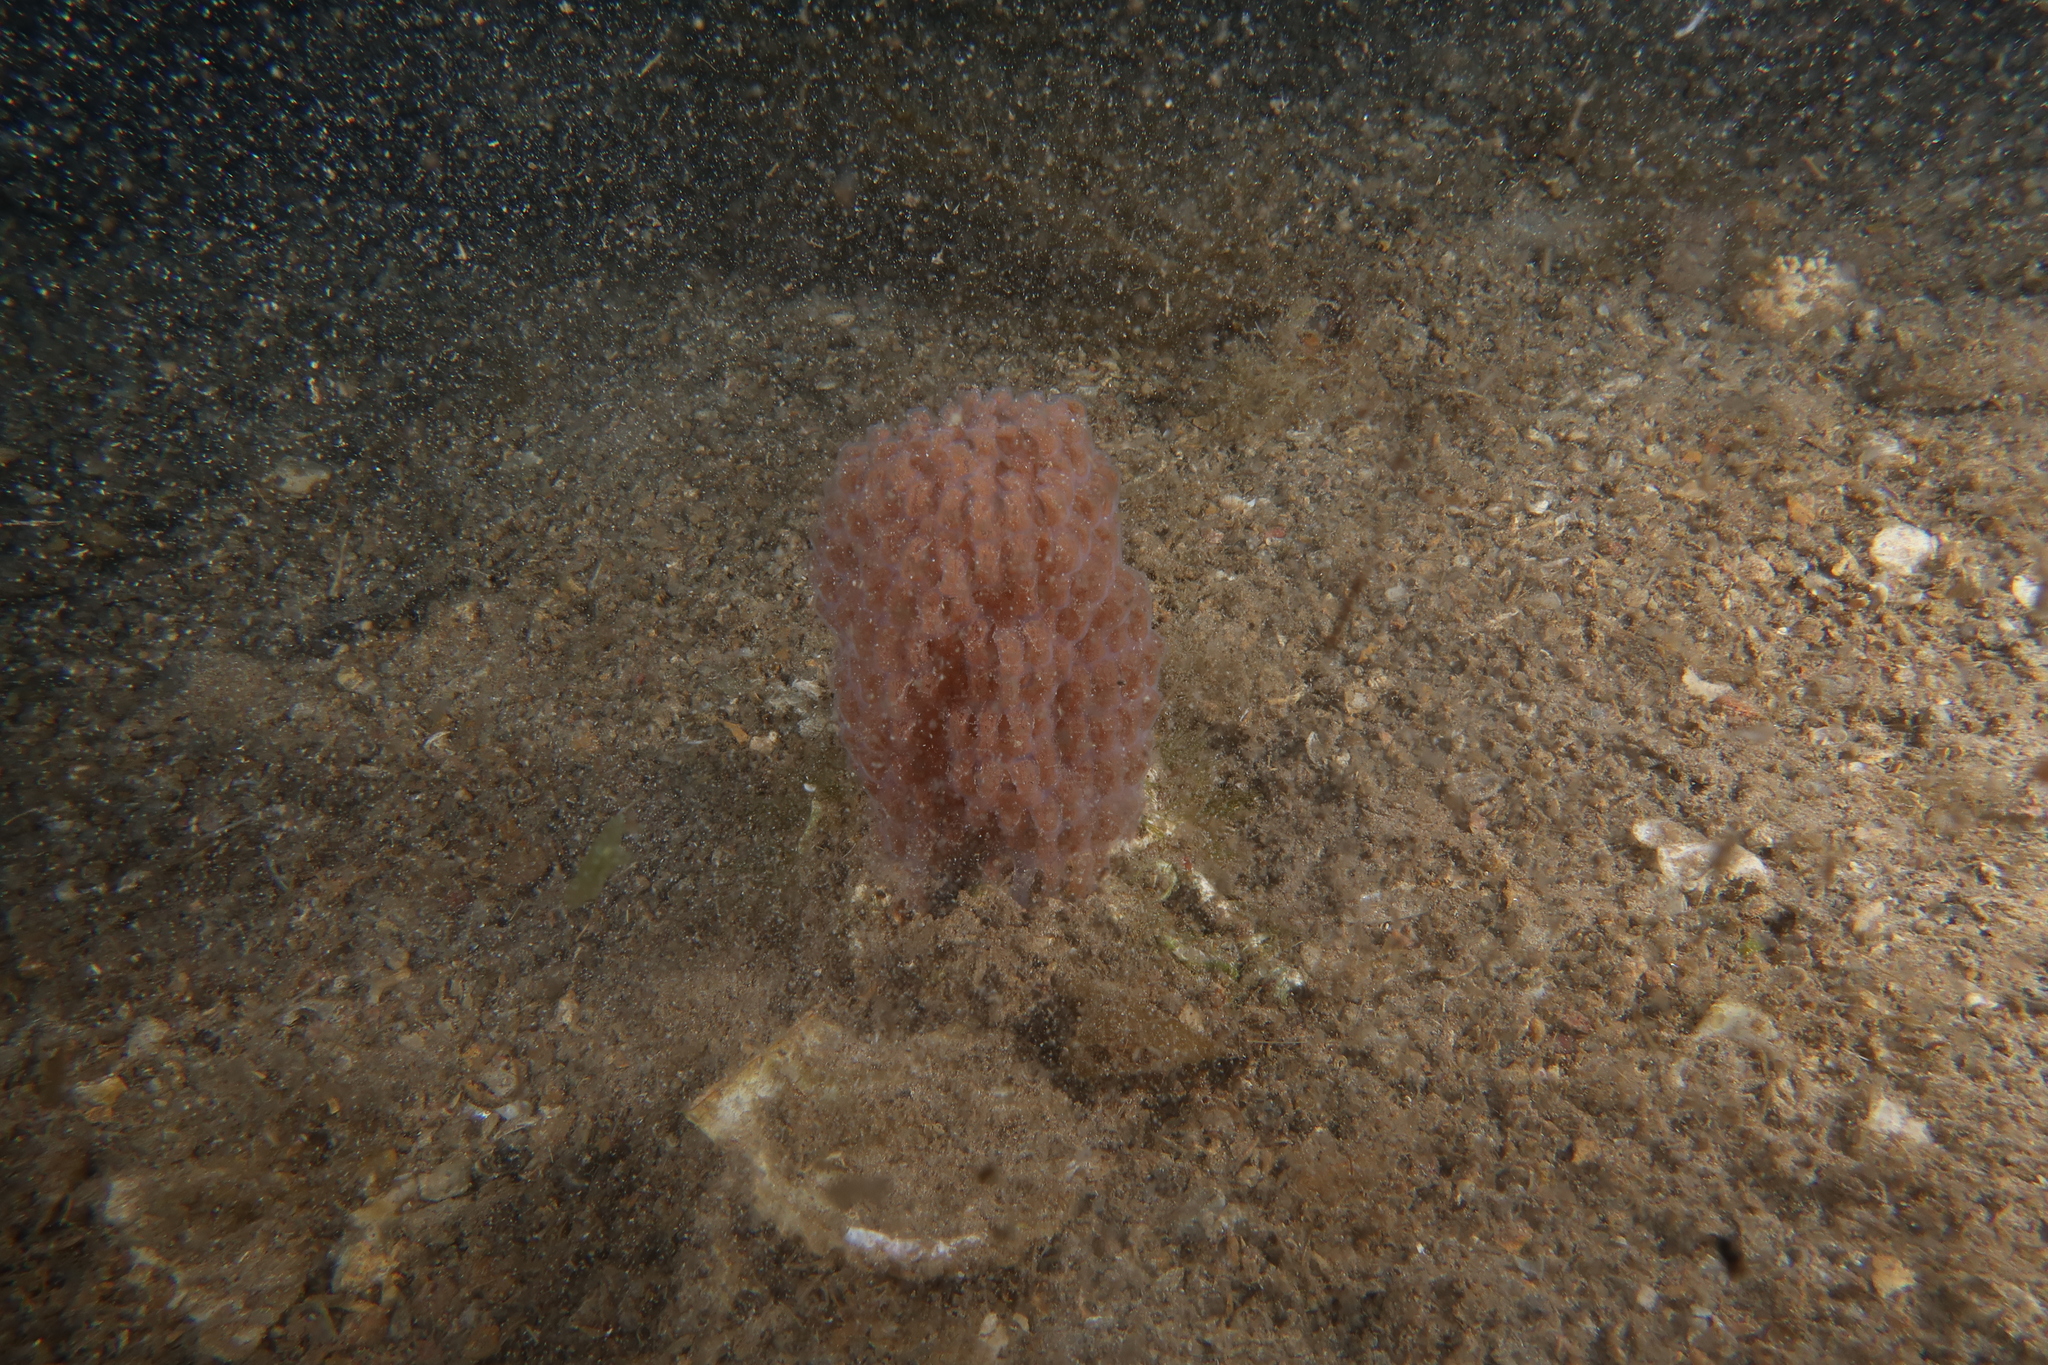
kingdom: Animalia
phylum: Mollusca
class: Gastropoda
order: Littorinimorpha
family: Cassidae
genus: Semicassis
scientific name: Semicassis undulata
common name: Mediterranean bonnet
